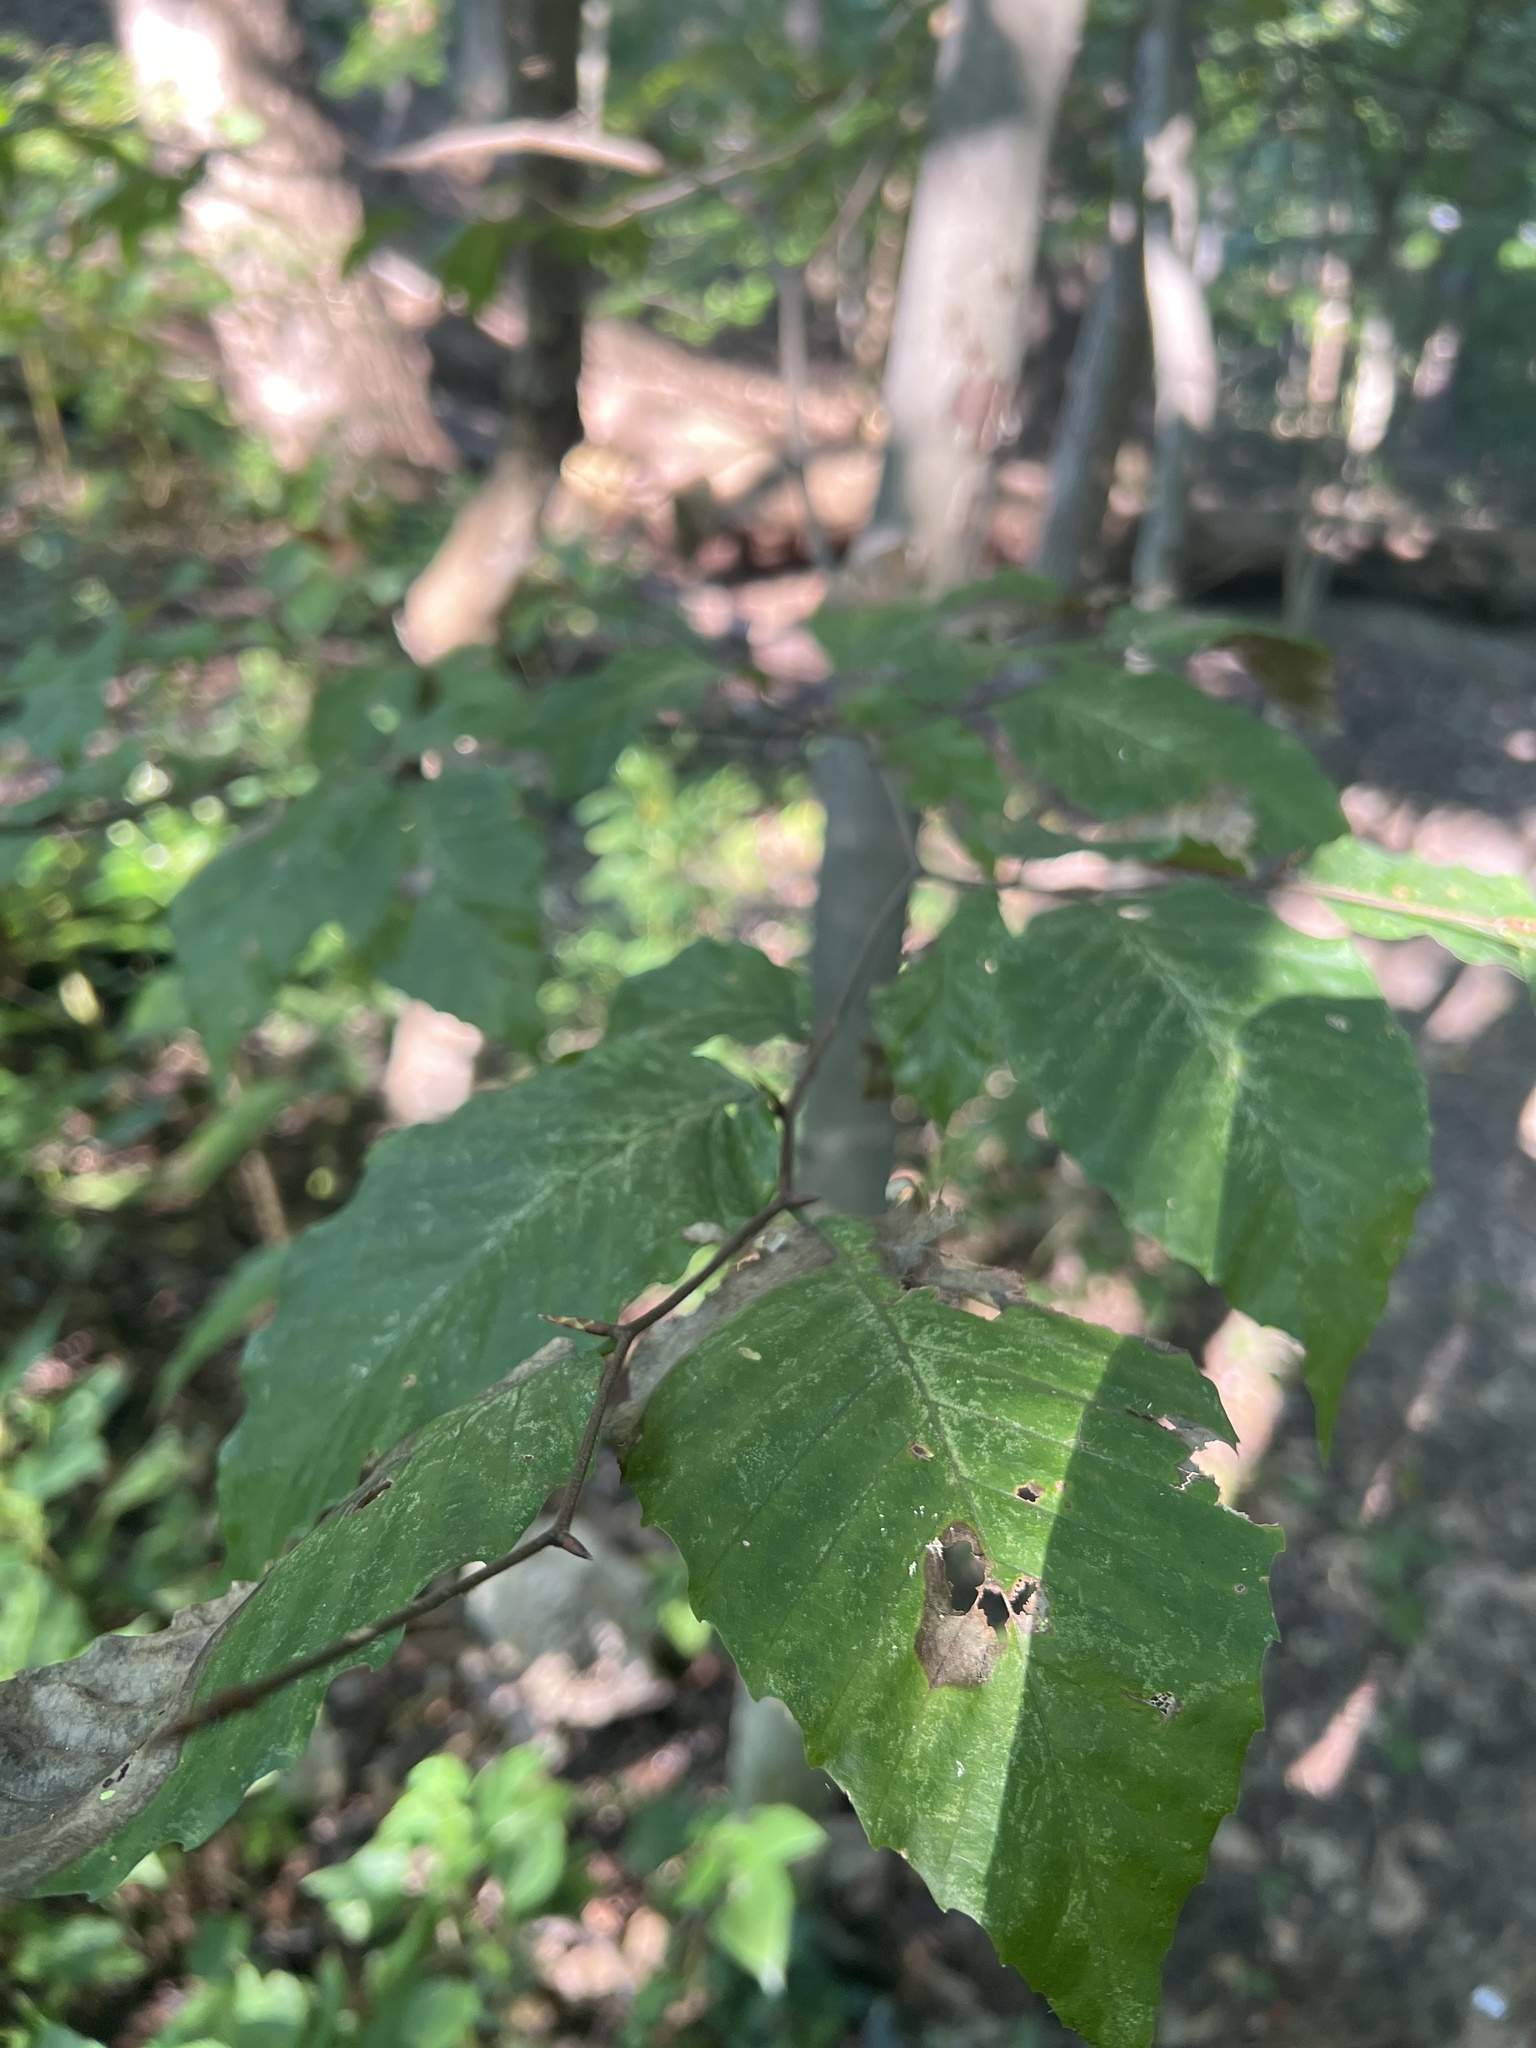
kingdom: Plantae
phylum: Tracheophyta
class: Magnoliopsida
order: Fagales
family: Fagaceae
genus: Fagus
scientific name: Fagus grandifolia
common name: American beech
